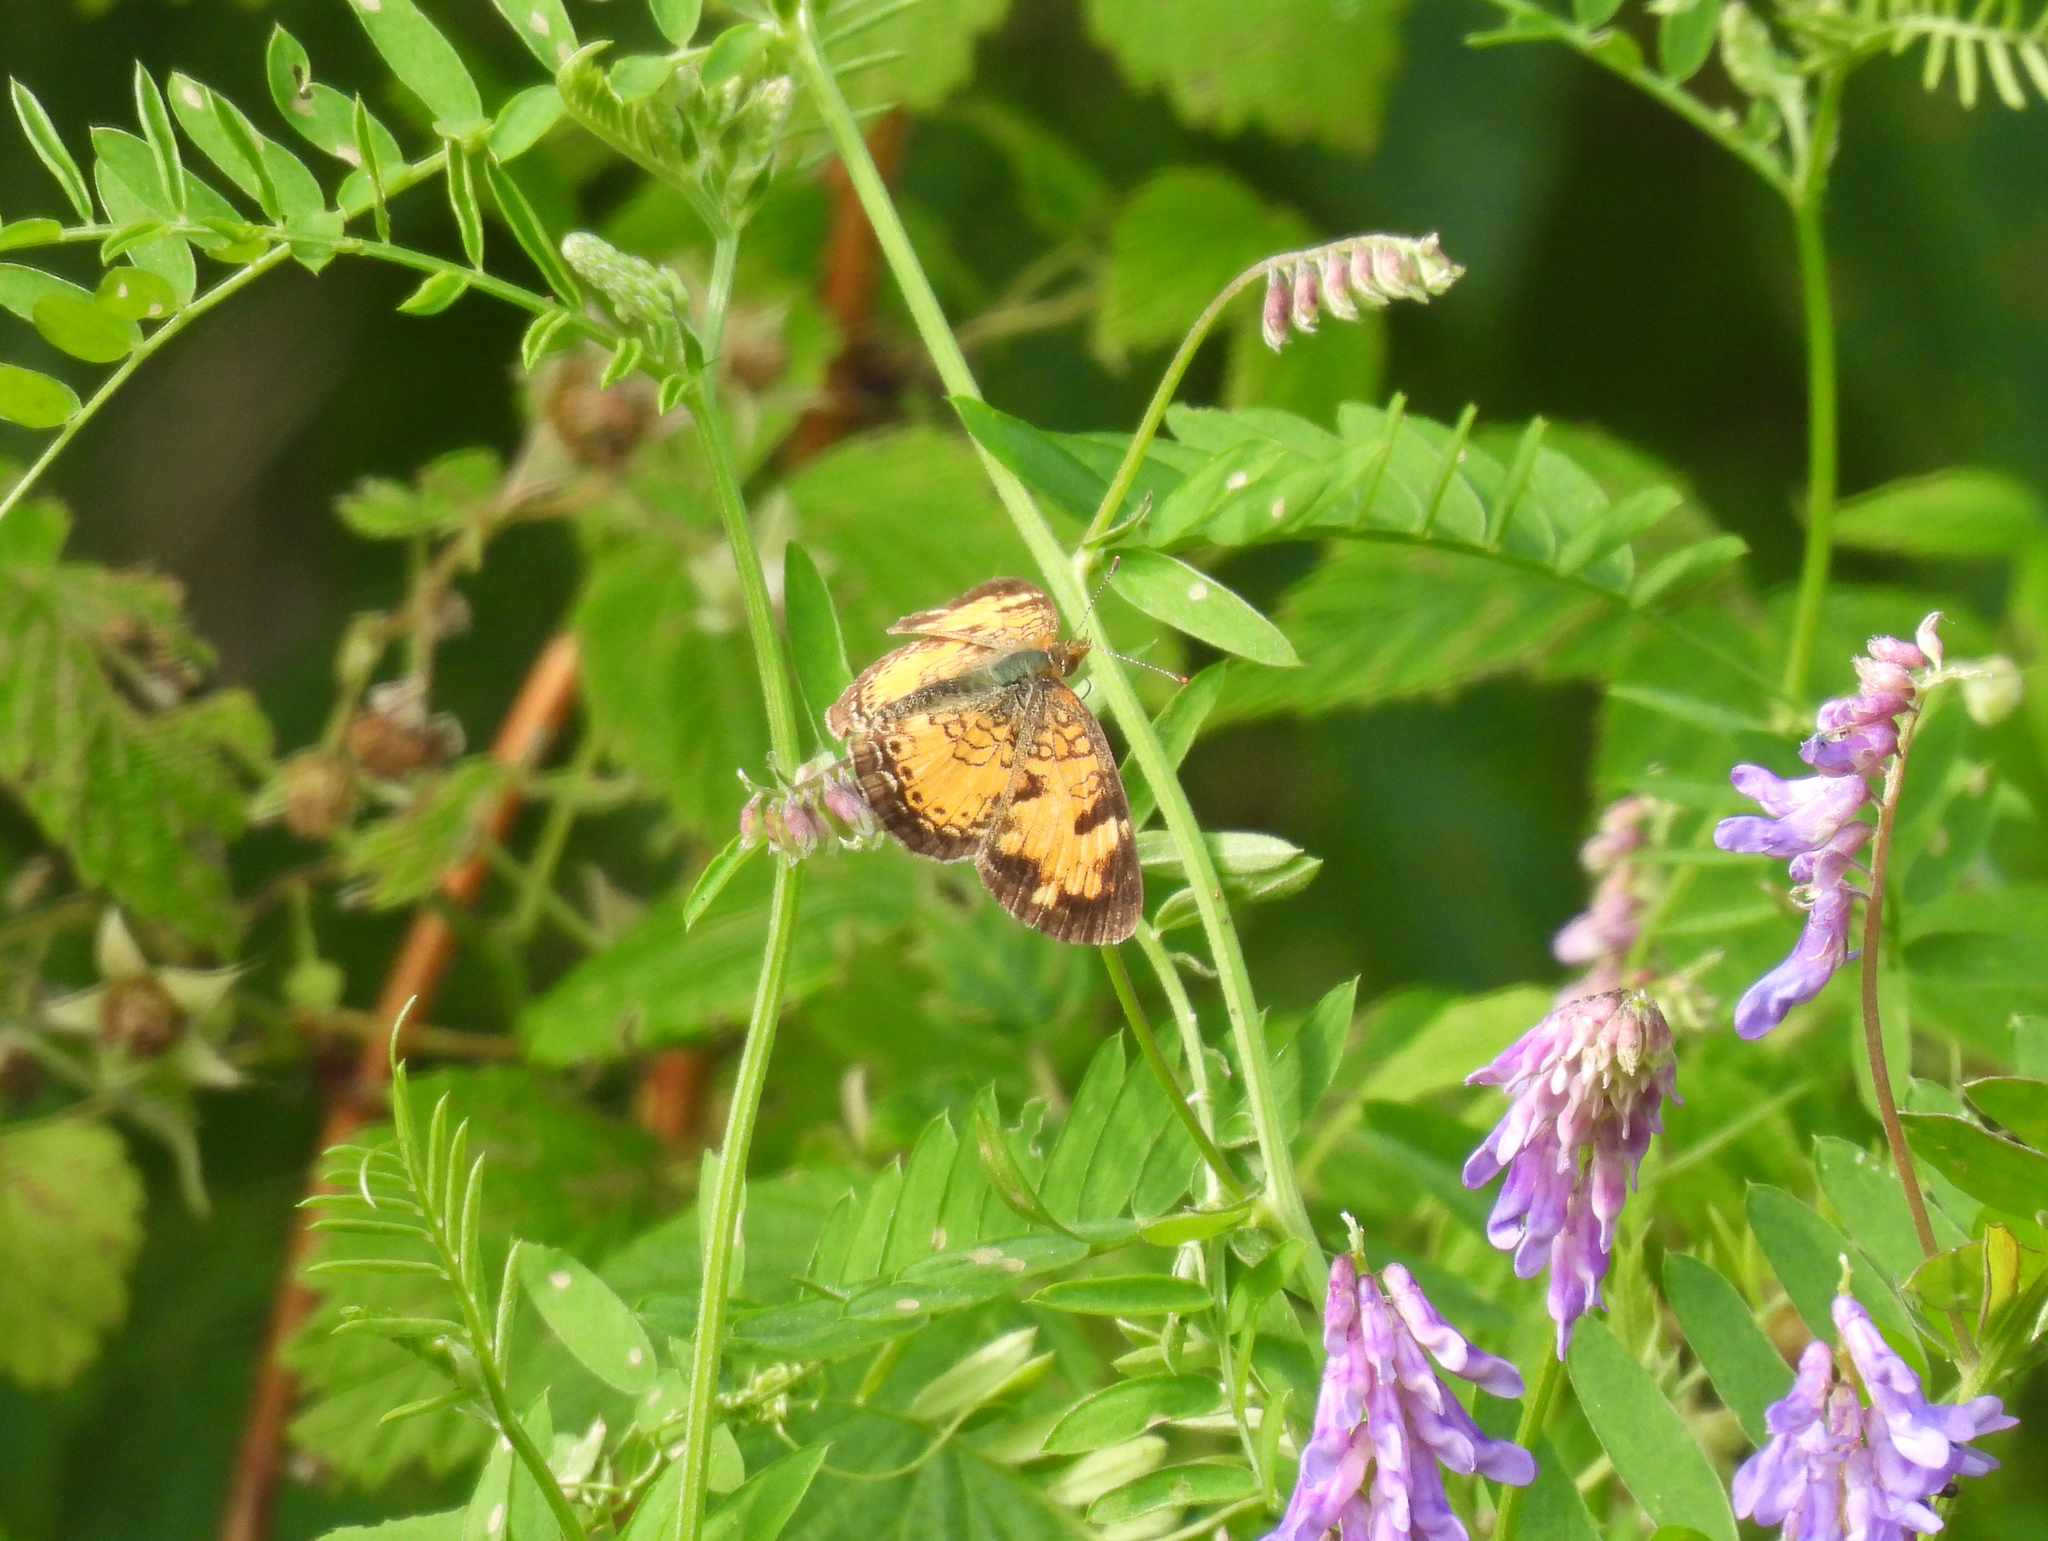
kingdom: Animalia
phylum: Arthropoda
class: Insecta
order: Lepidoptera
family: Nymphalidae
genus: Phyciodes
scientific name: Phyciodes tharos
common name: Pearl crescent
